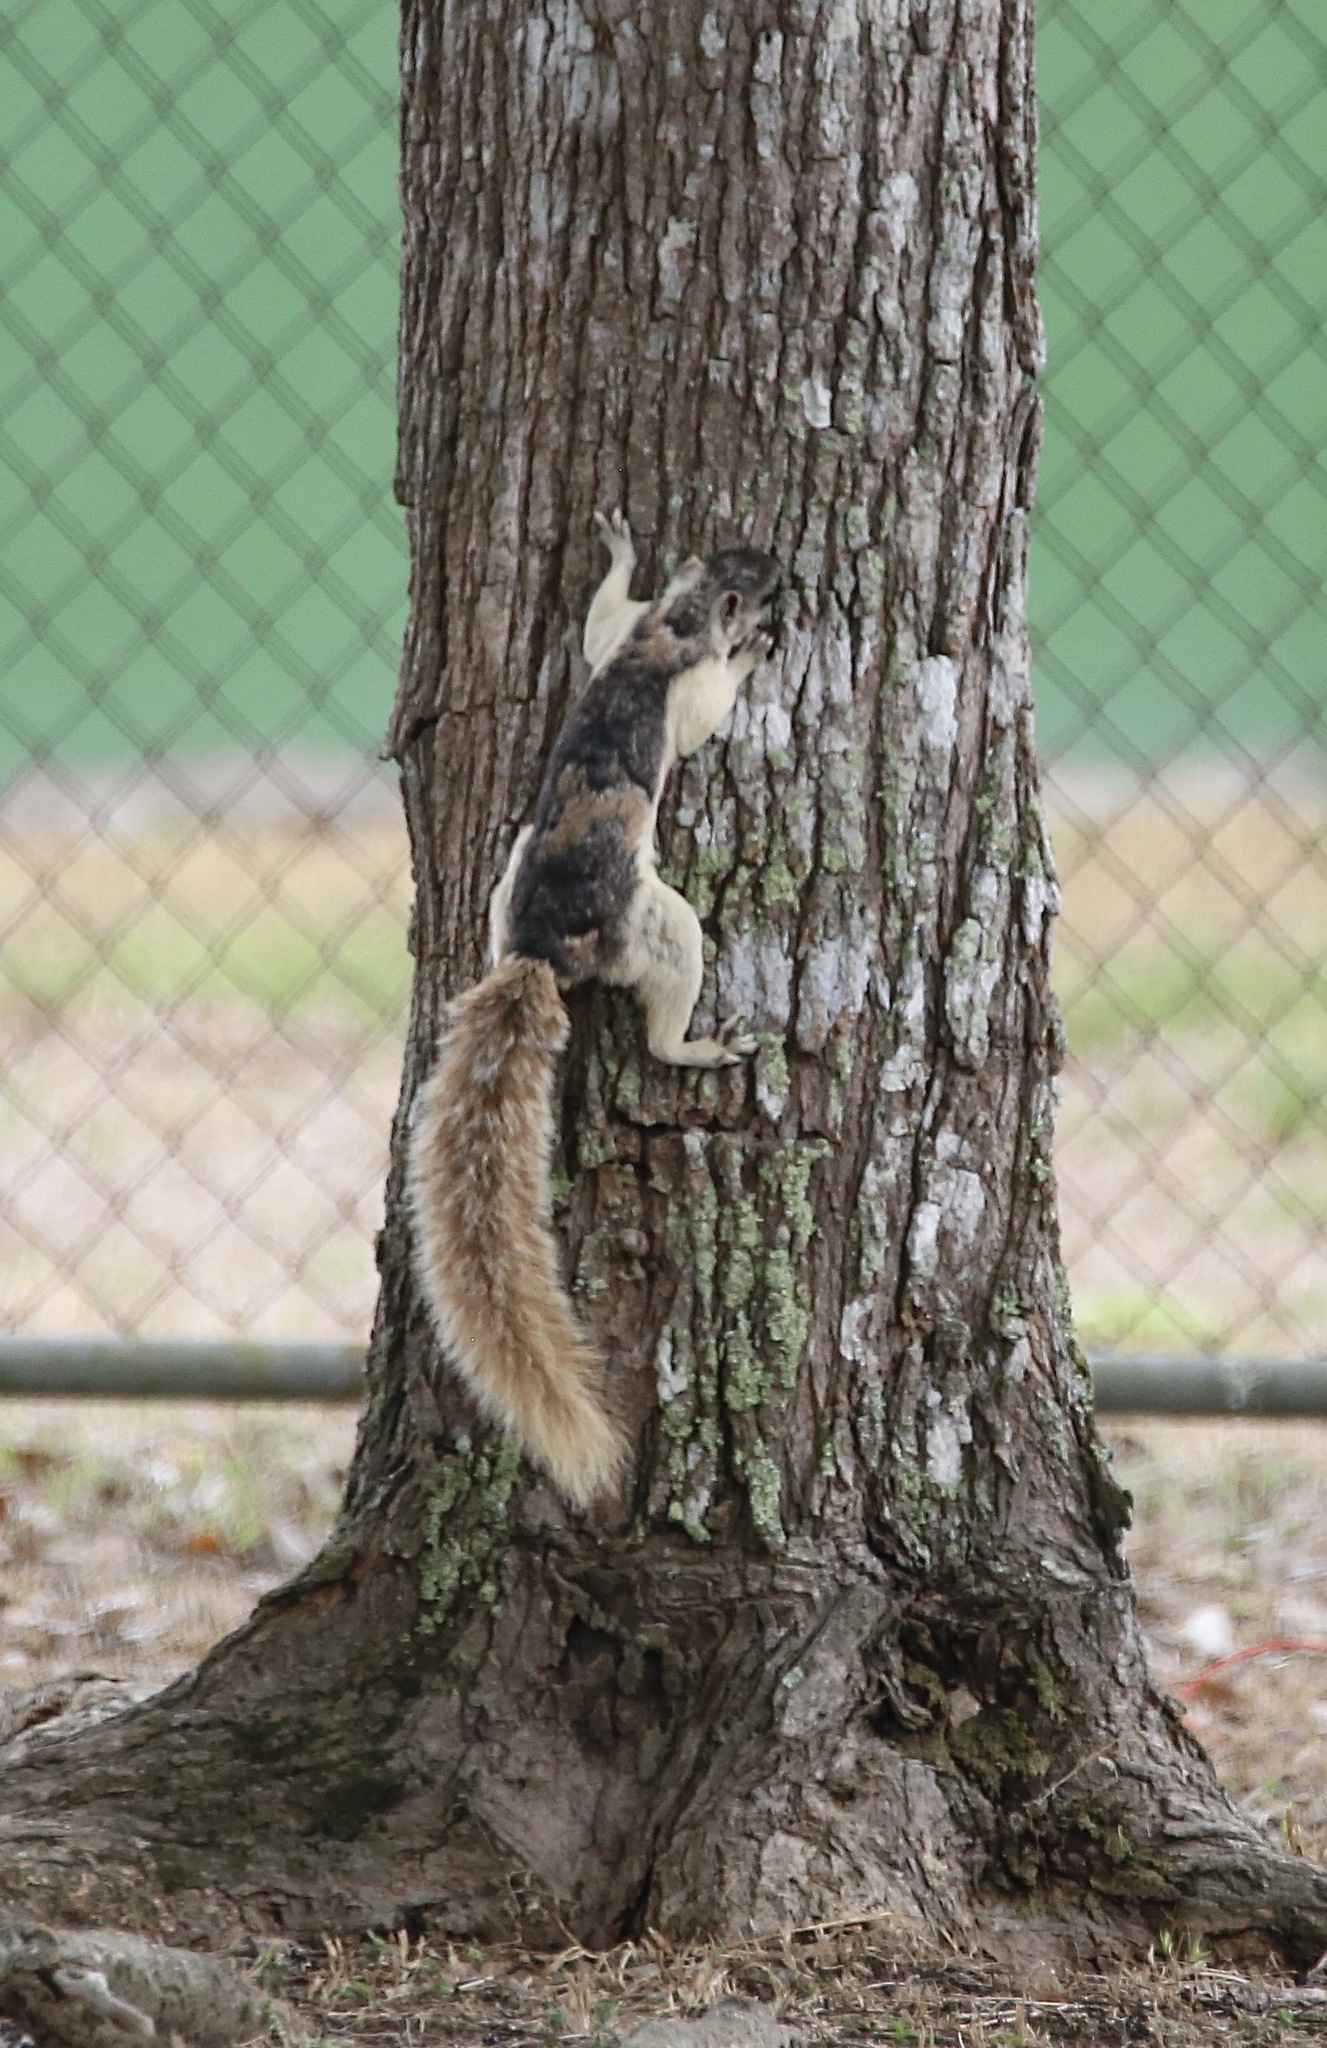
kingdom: Animalia
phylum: Chordata
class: Mammalia
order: Rodentia
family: Sciuridae
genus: Sciurus
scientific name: Sciurus variegatoides
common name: Variegated squirrel
